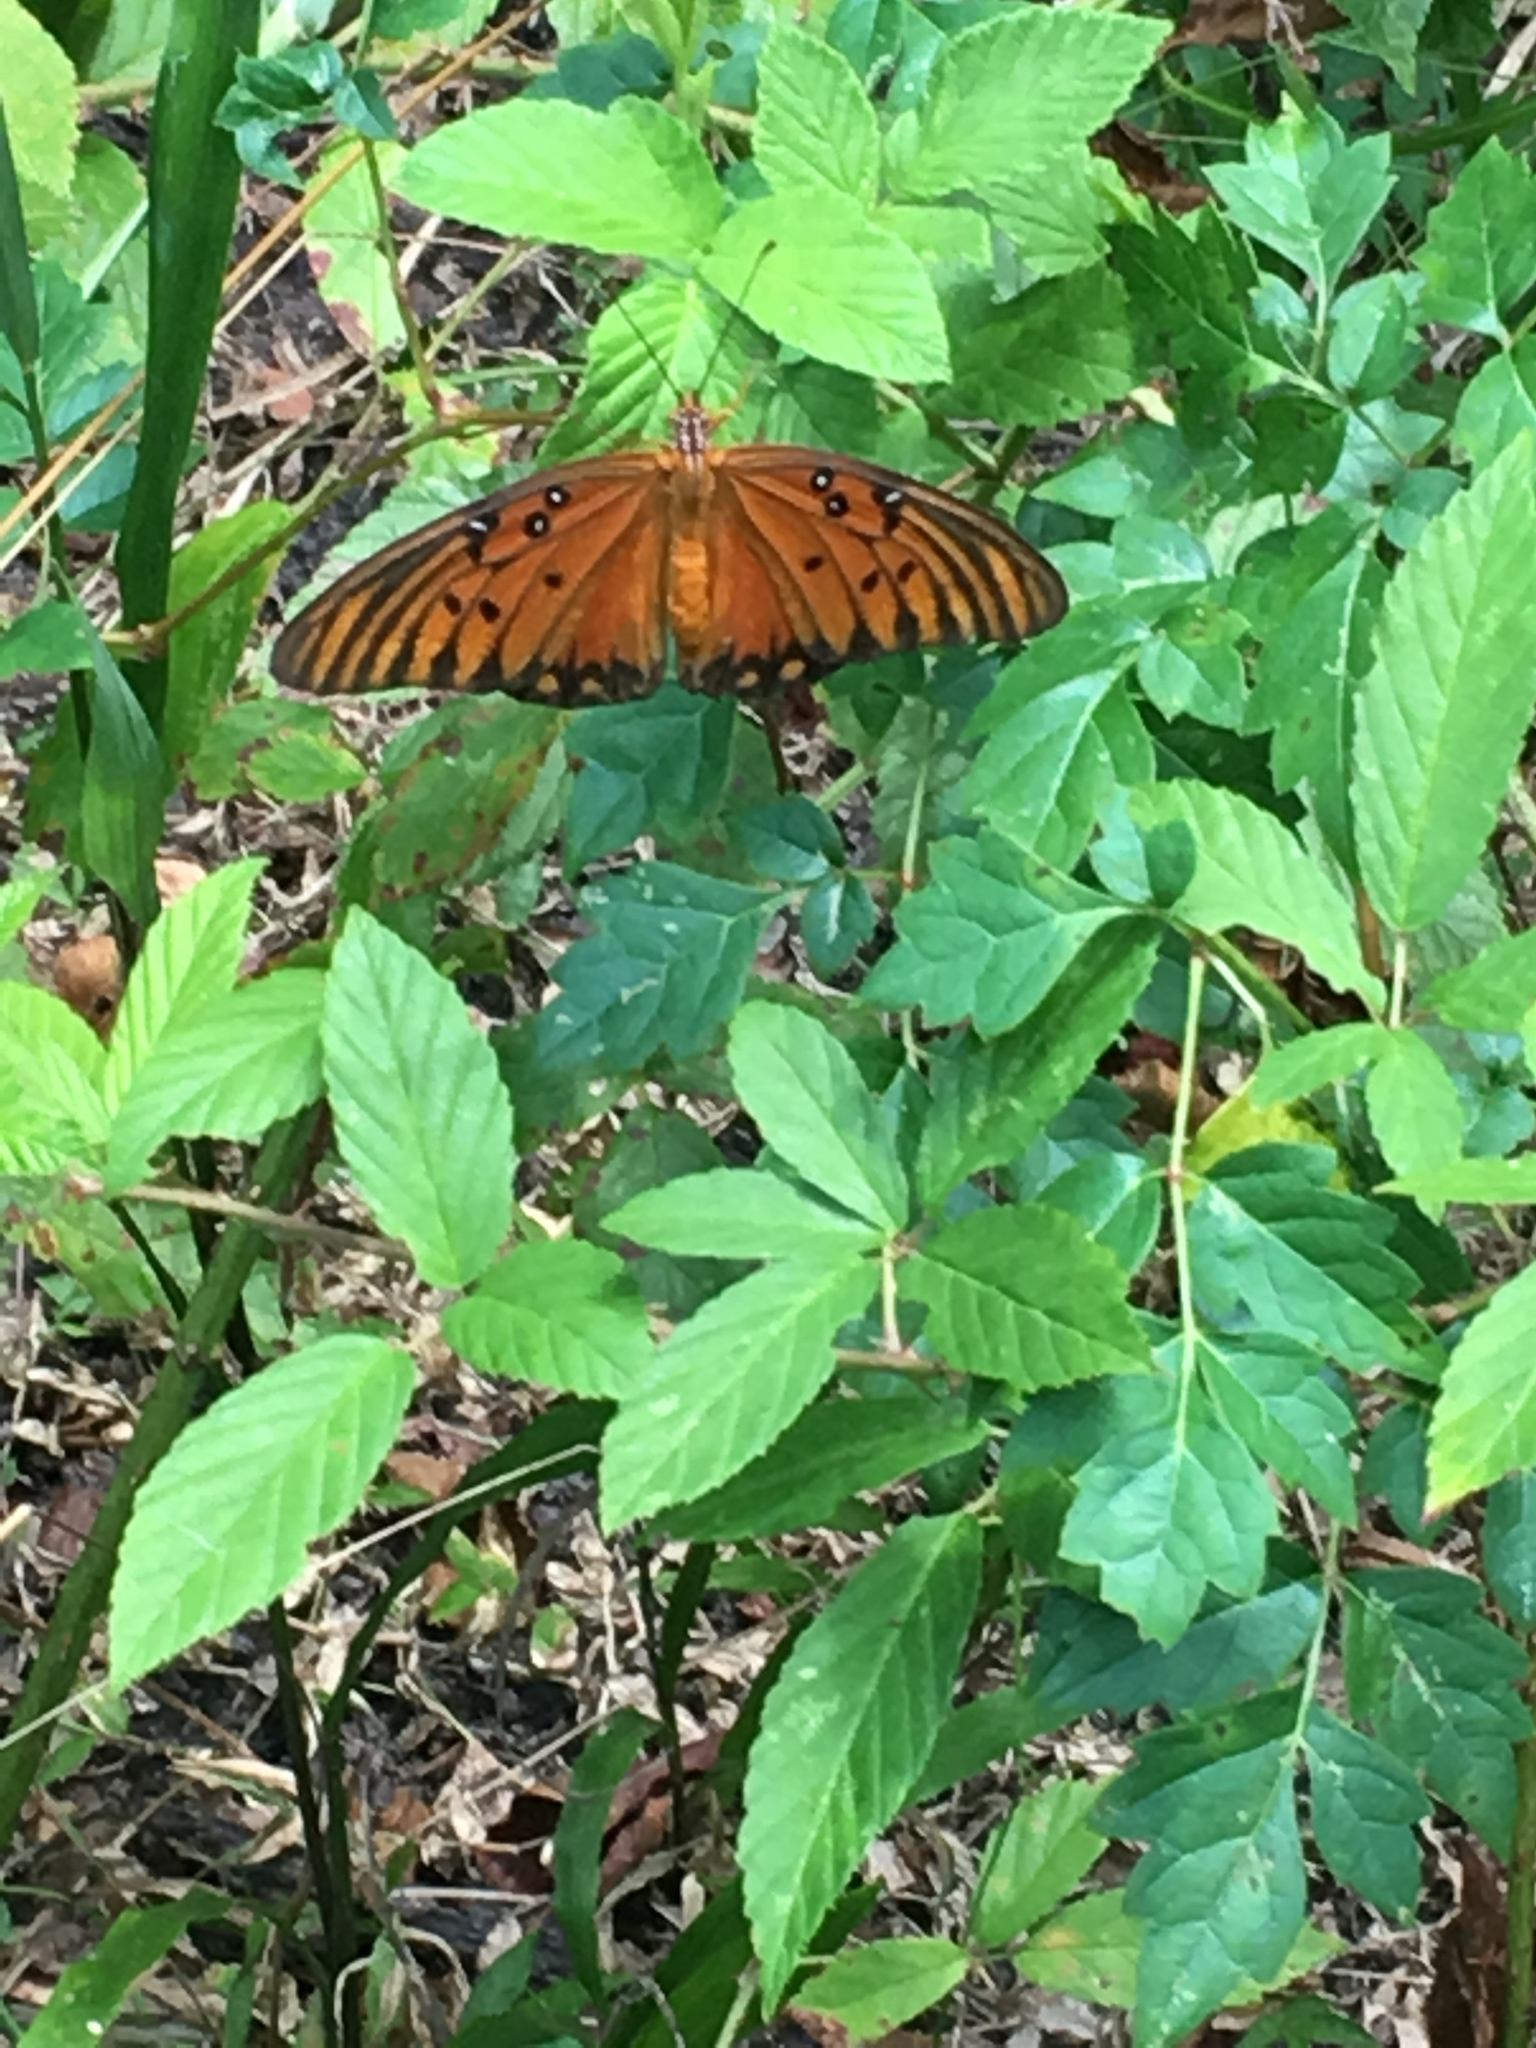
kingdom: Animalia
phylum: Arthropoda
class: Insecta
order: Lepidoptera
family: Nymphalidae
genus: Dione
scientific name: Dione vanillae
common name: Gulf fritillary
